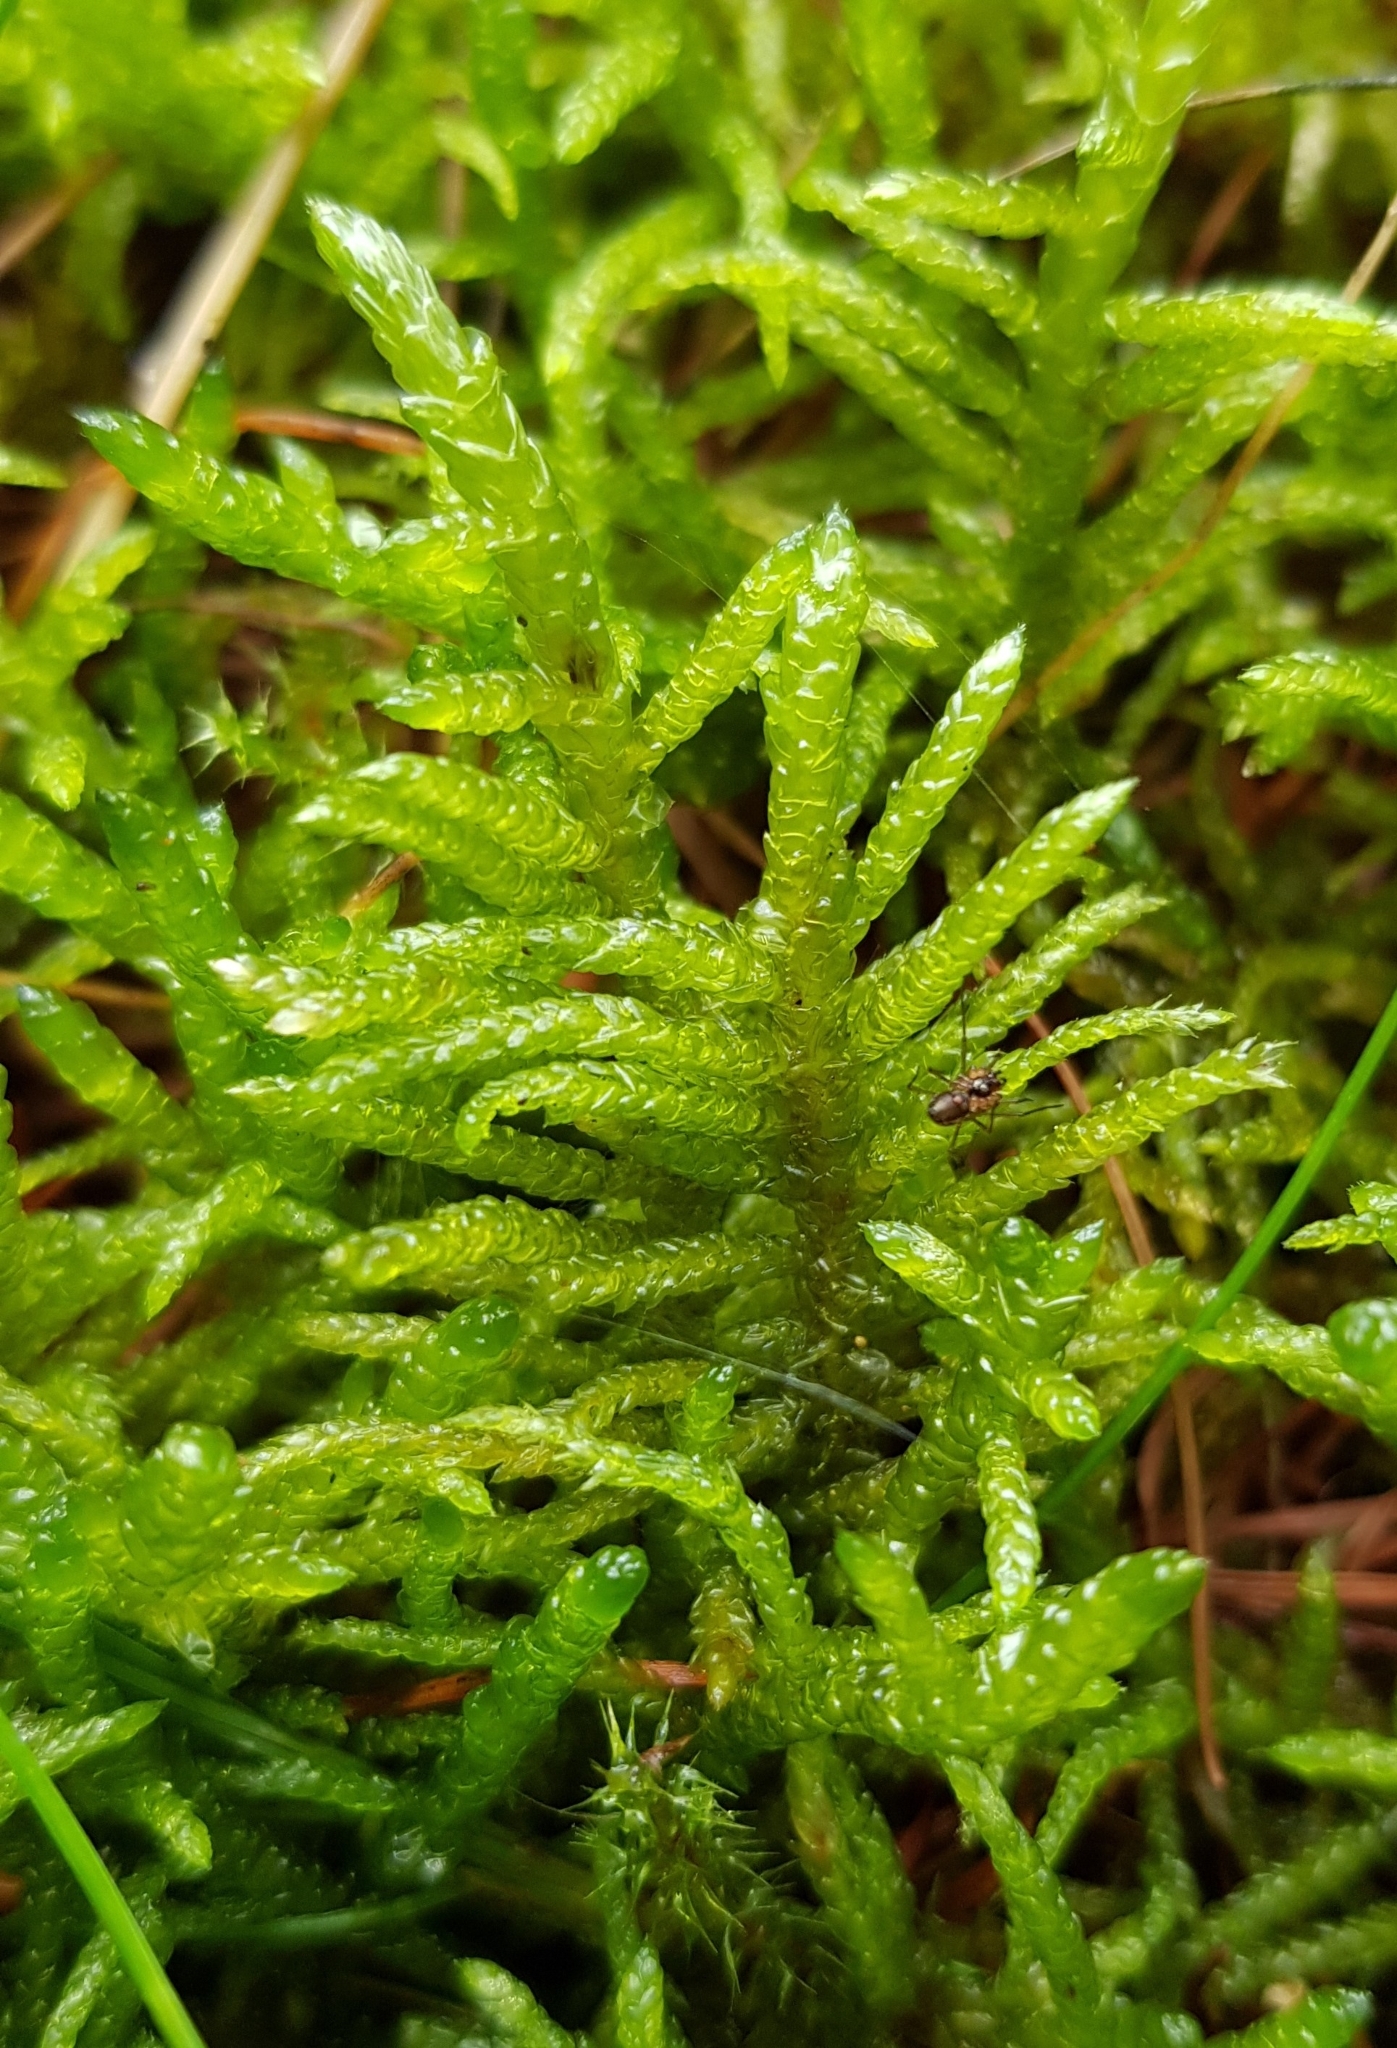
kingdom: Plantae
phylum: Bryophyta
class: Bryopsida
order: Hypnales
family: Brachytheciaceae
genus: Pseudoscleropodium
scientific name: Pseudoscleropodium purum
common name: Neat feather-moss
